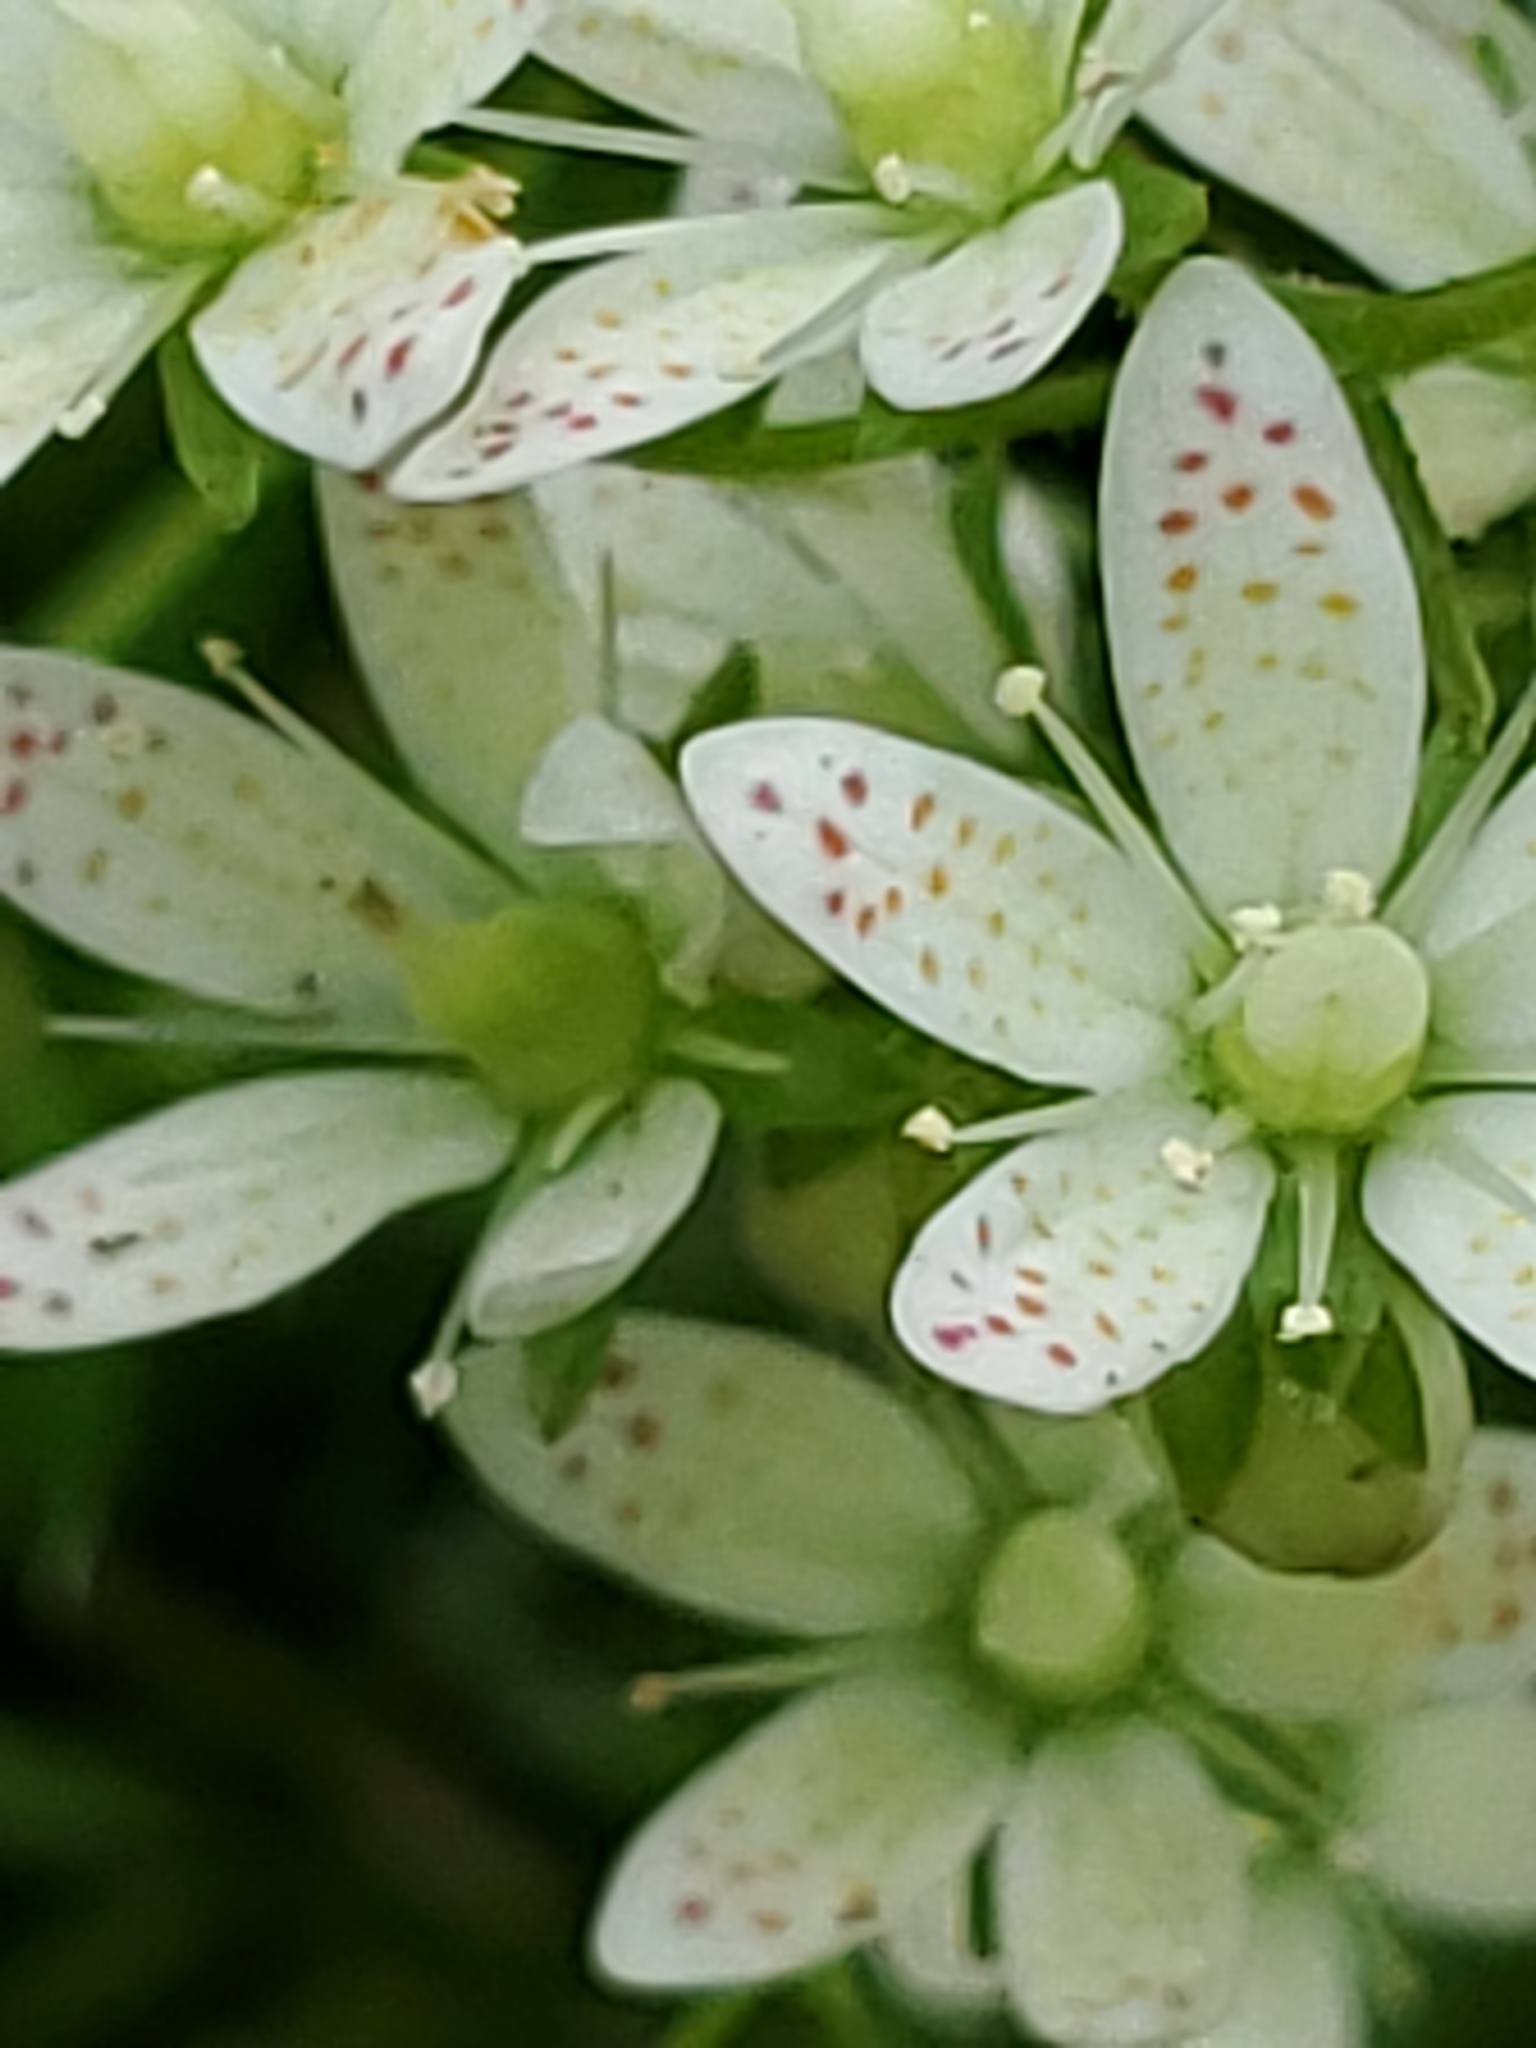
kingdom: Plantae
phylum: Tracheophyta
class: Magnoliopsida
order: Saxifragales
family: Saxifragaceae
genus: Saxifraga
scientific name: Saxifraga bronchialis
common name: Matted saxifrage
